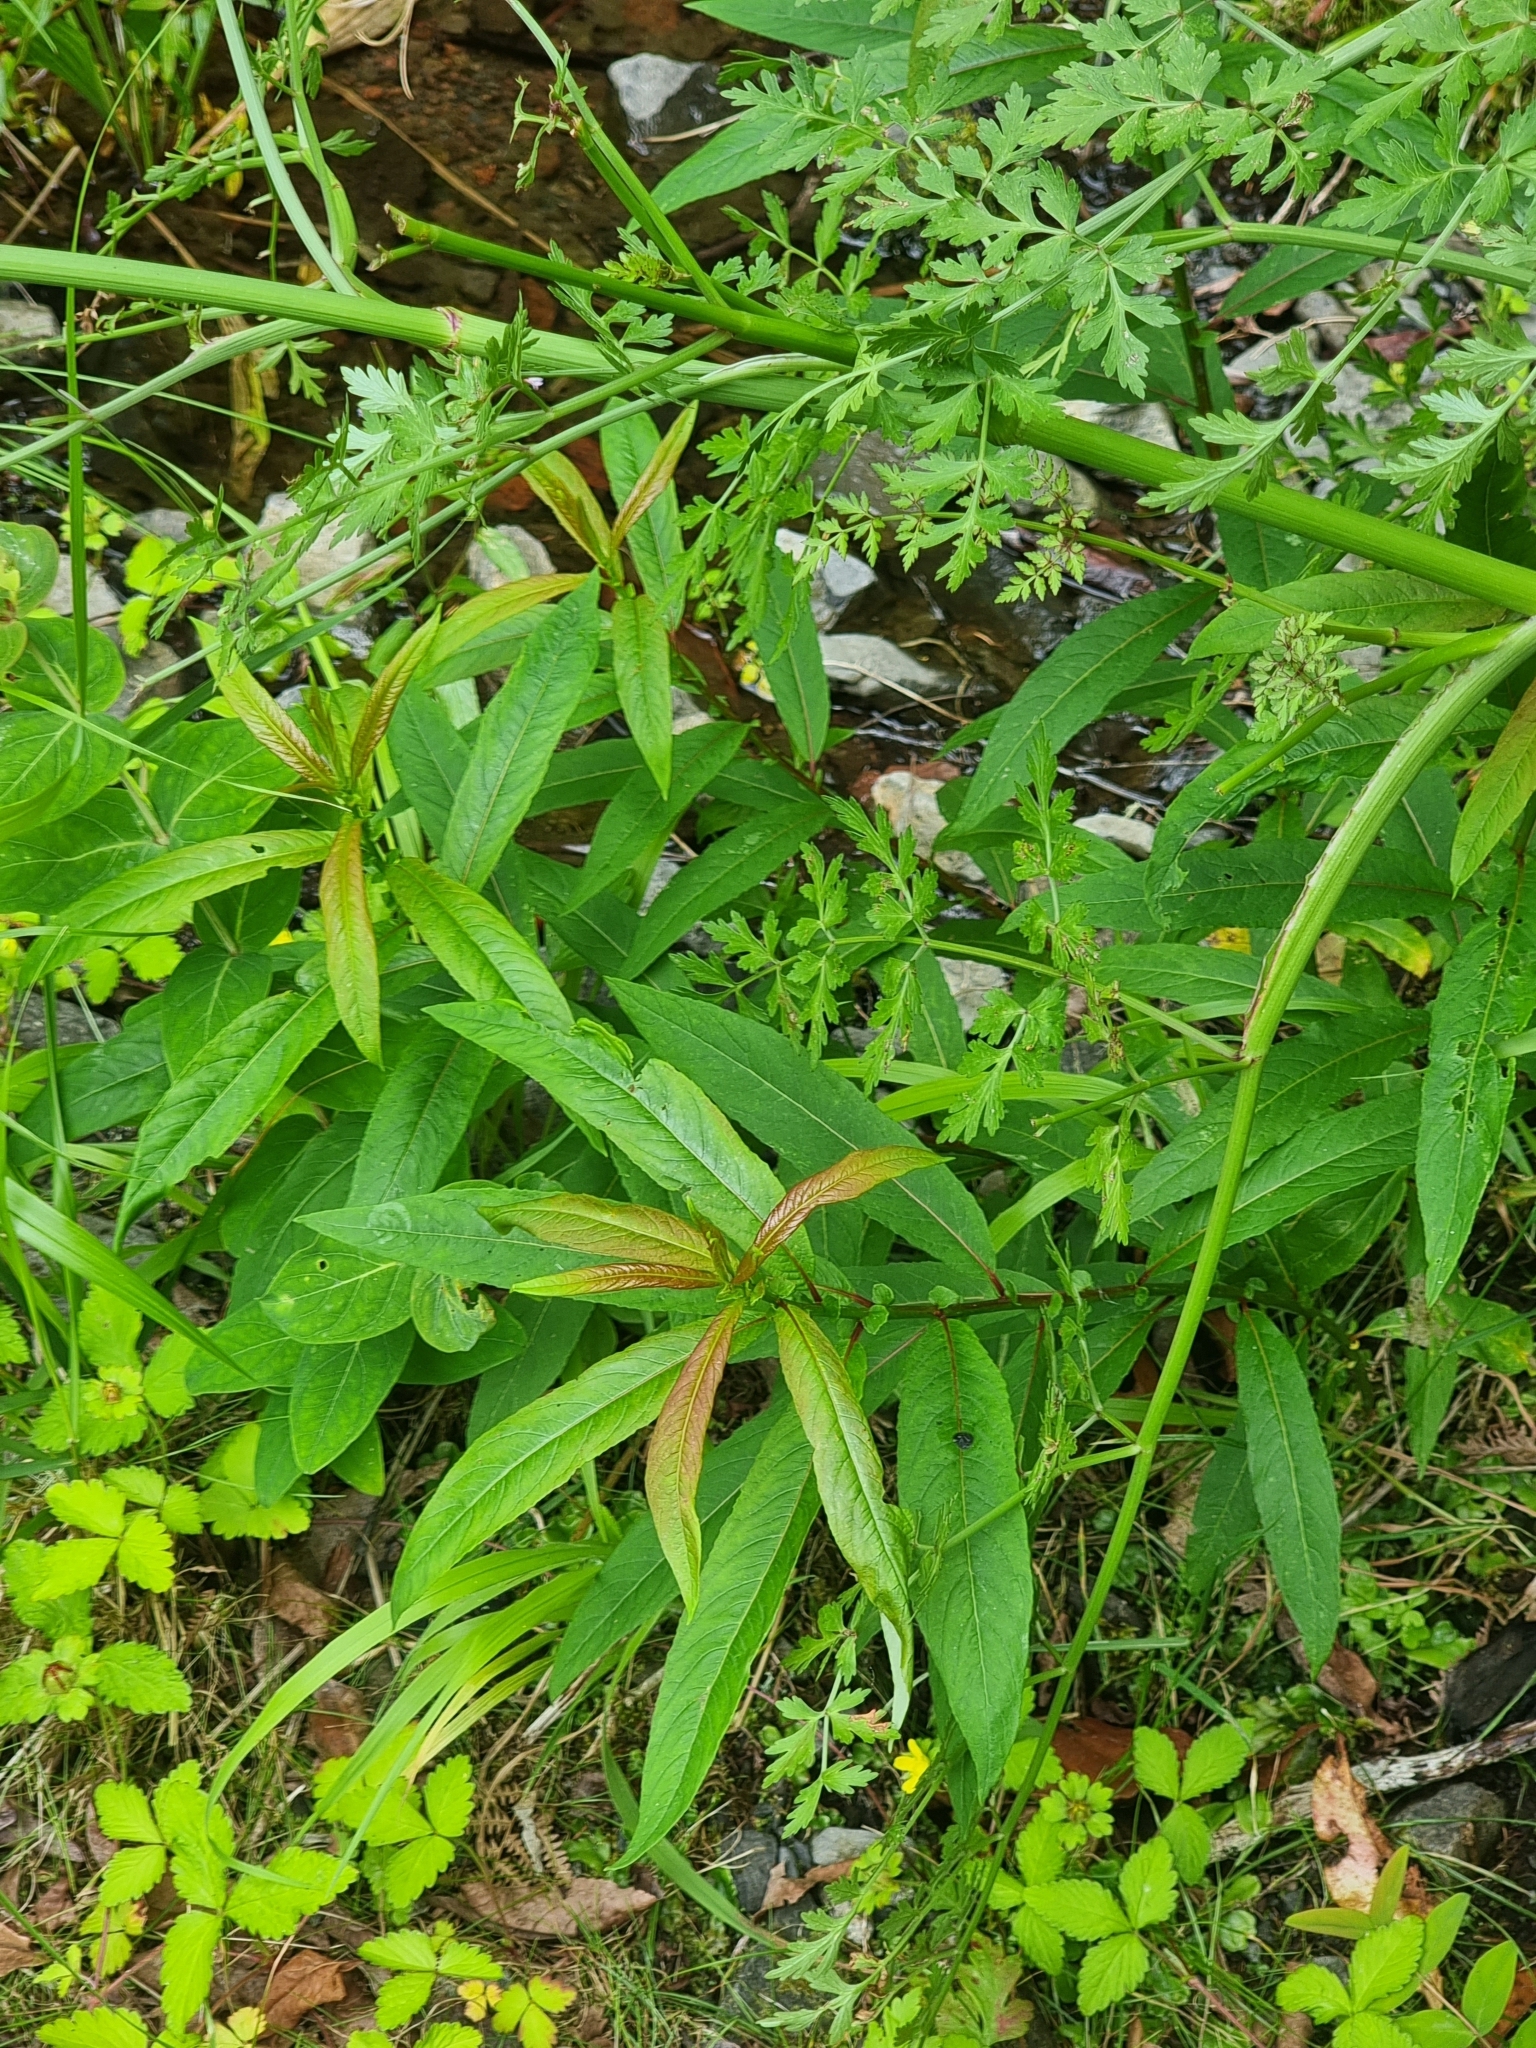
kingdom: Plantae
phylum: Tracheophyta
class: Magnoliopsida
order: Malpighiales
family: Salicaceae
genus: Salix
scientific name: Salix canariensis
